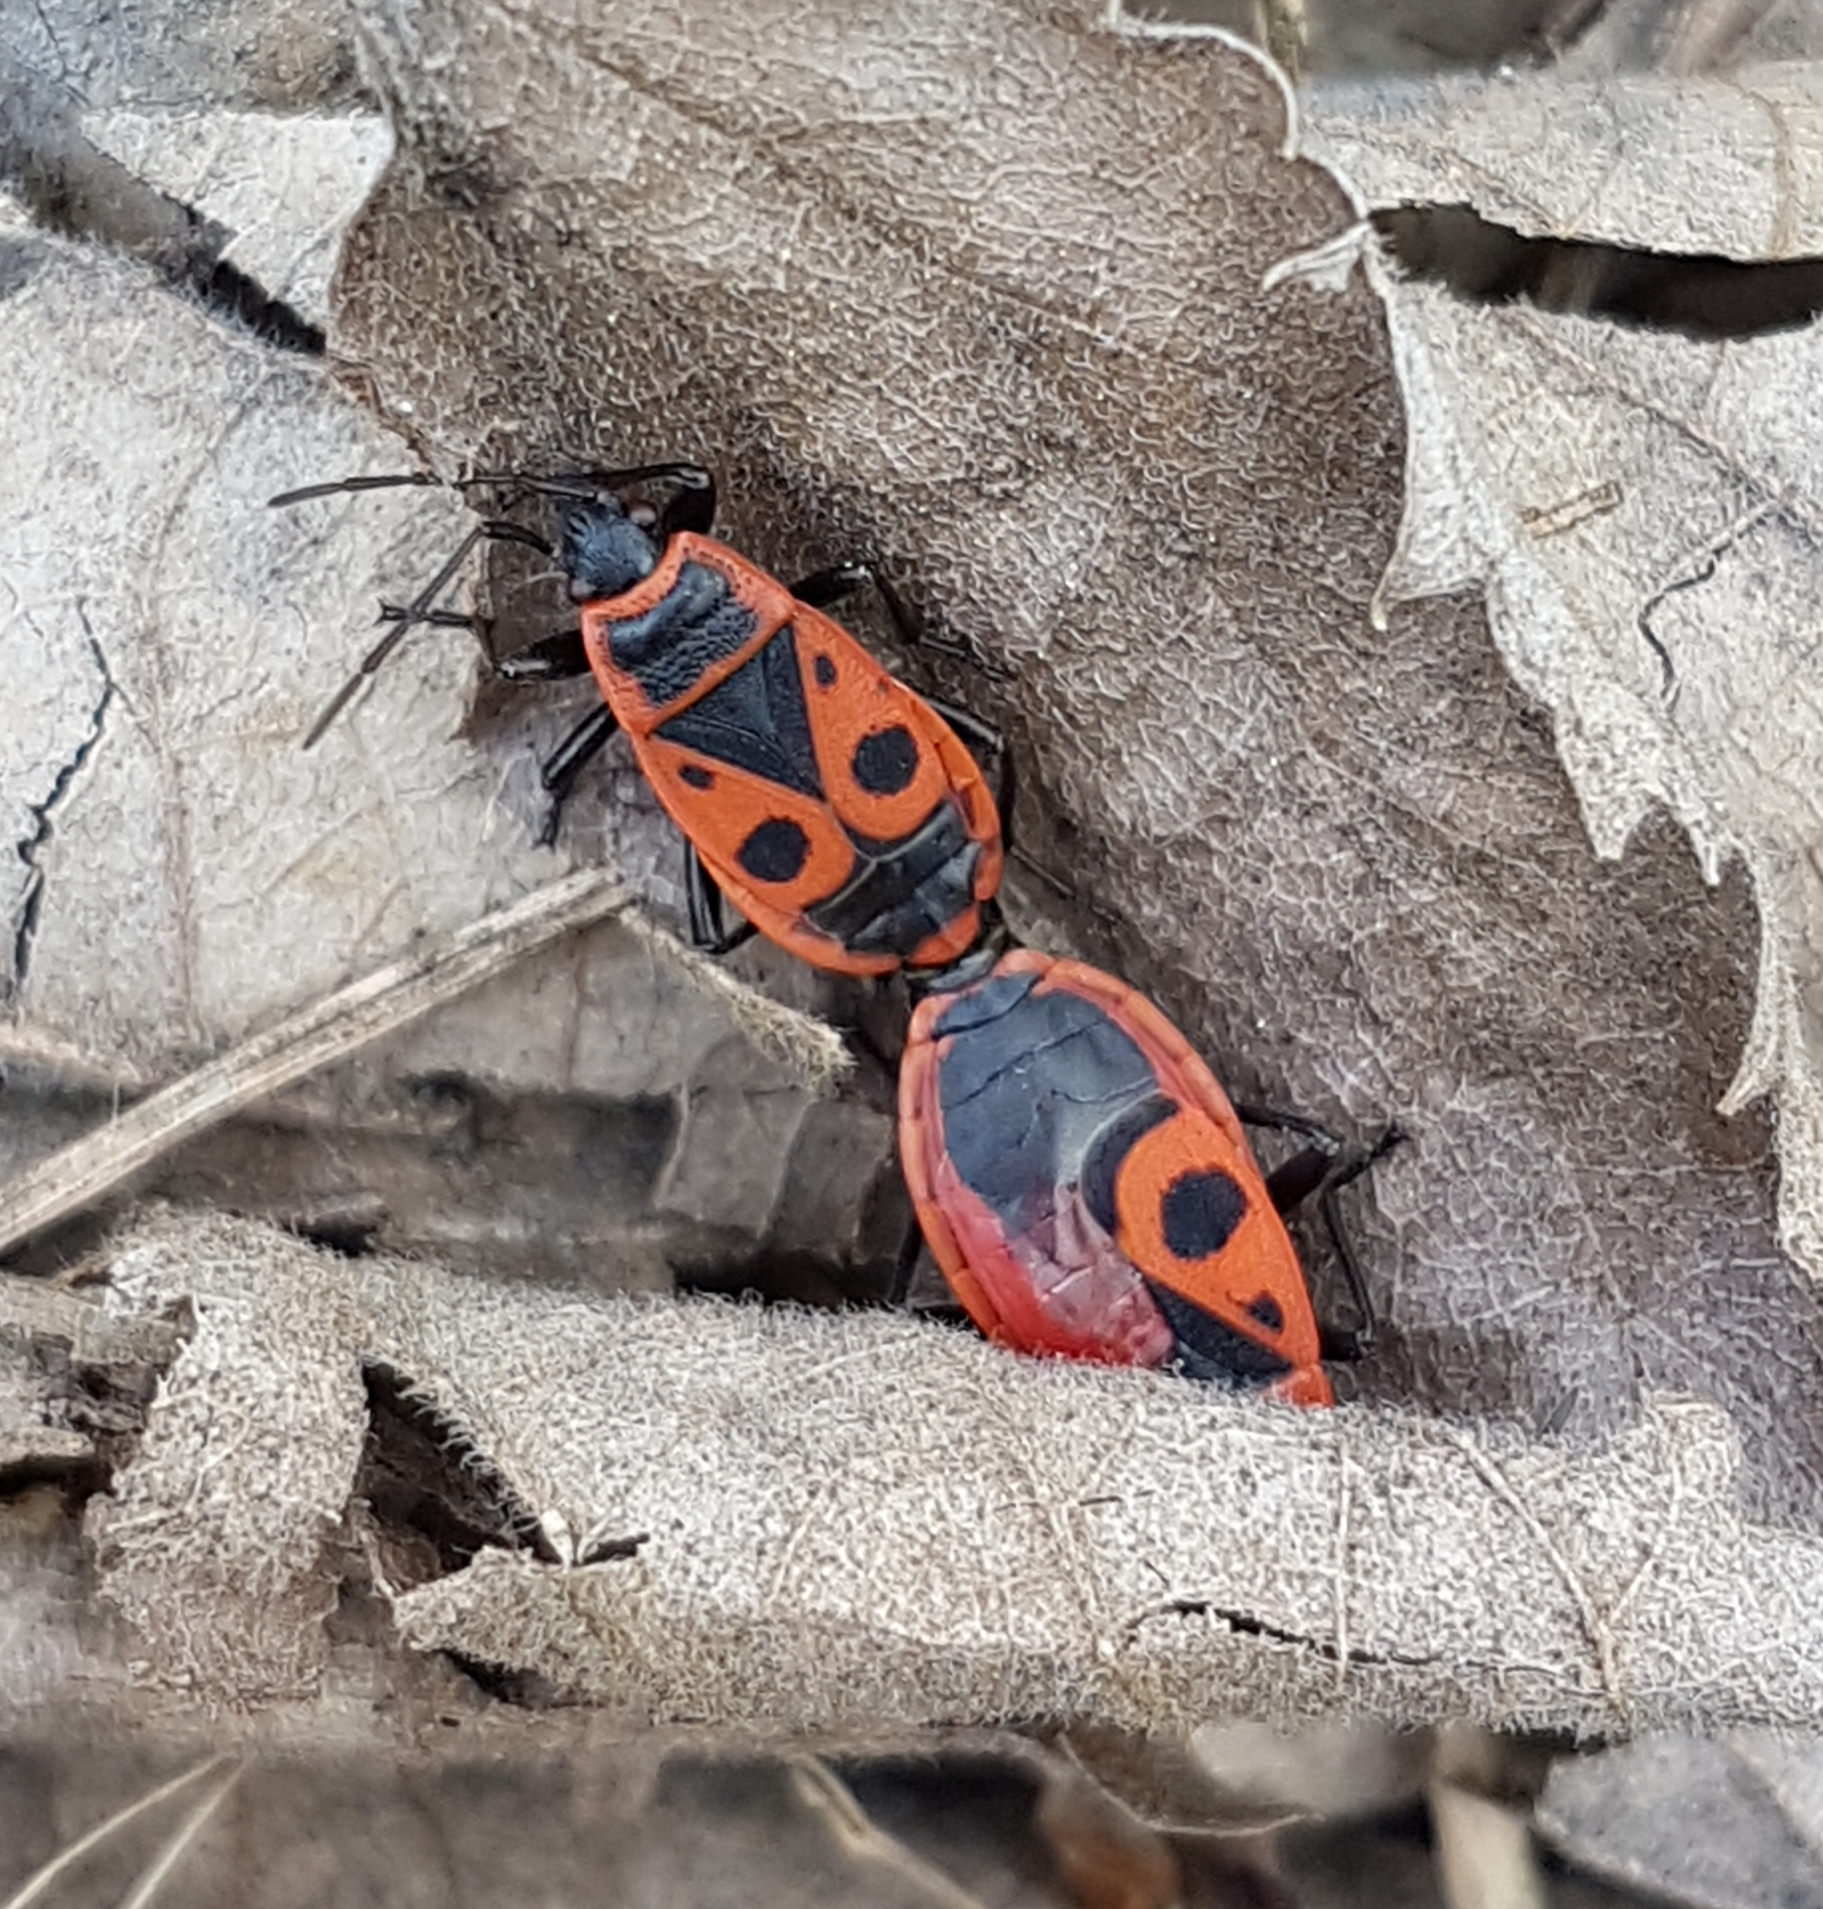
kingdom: Animalia
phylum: Arthropoda
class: Insecta
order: Hemiptera
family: Pyrrhocoridae
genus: Pyrrhocoris
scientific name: Pyrrhocoris apterus
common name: Firebug
